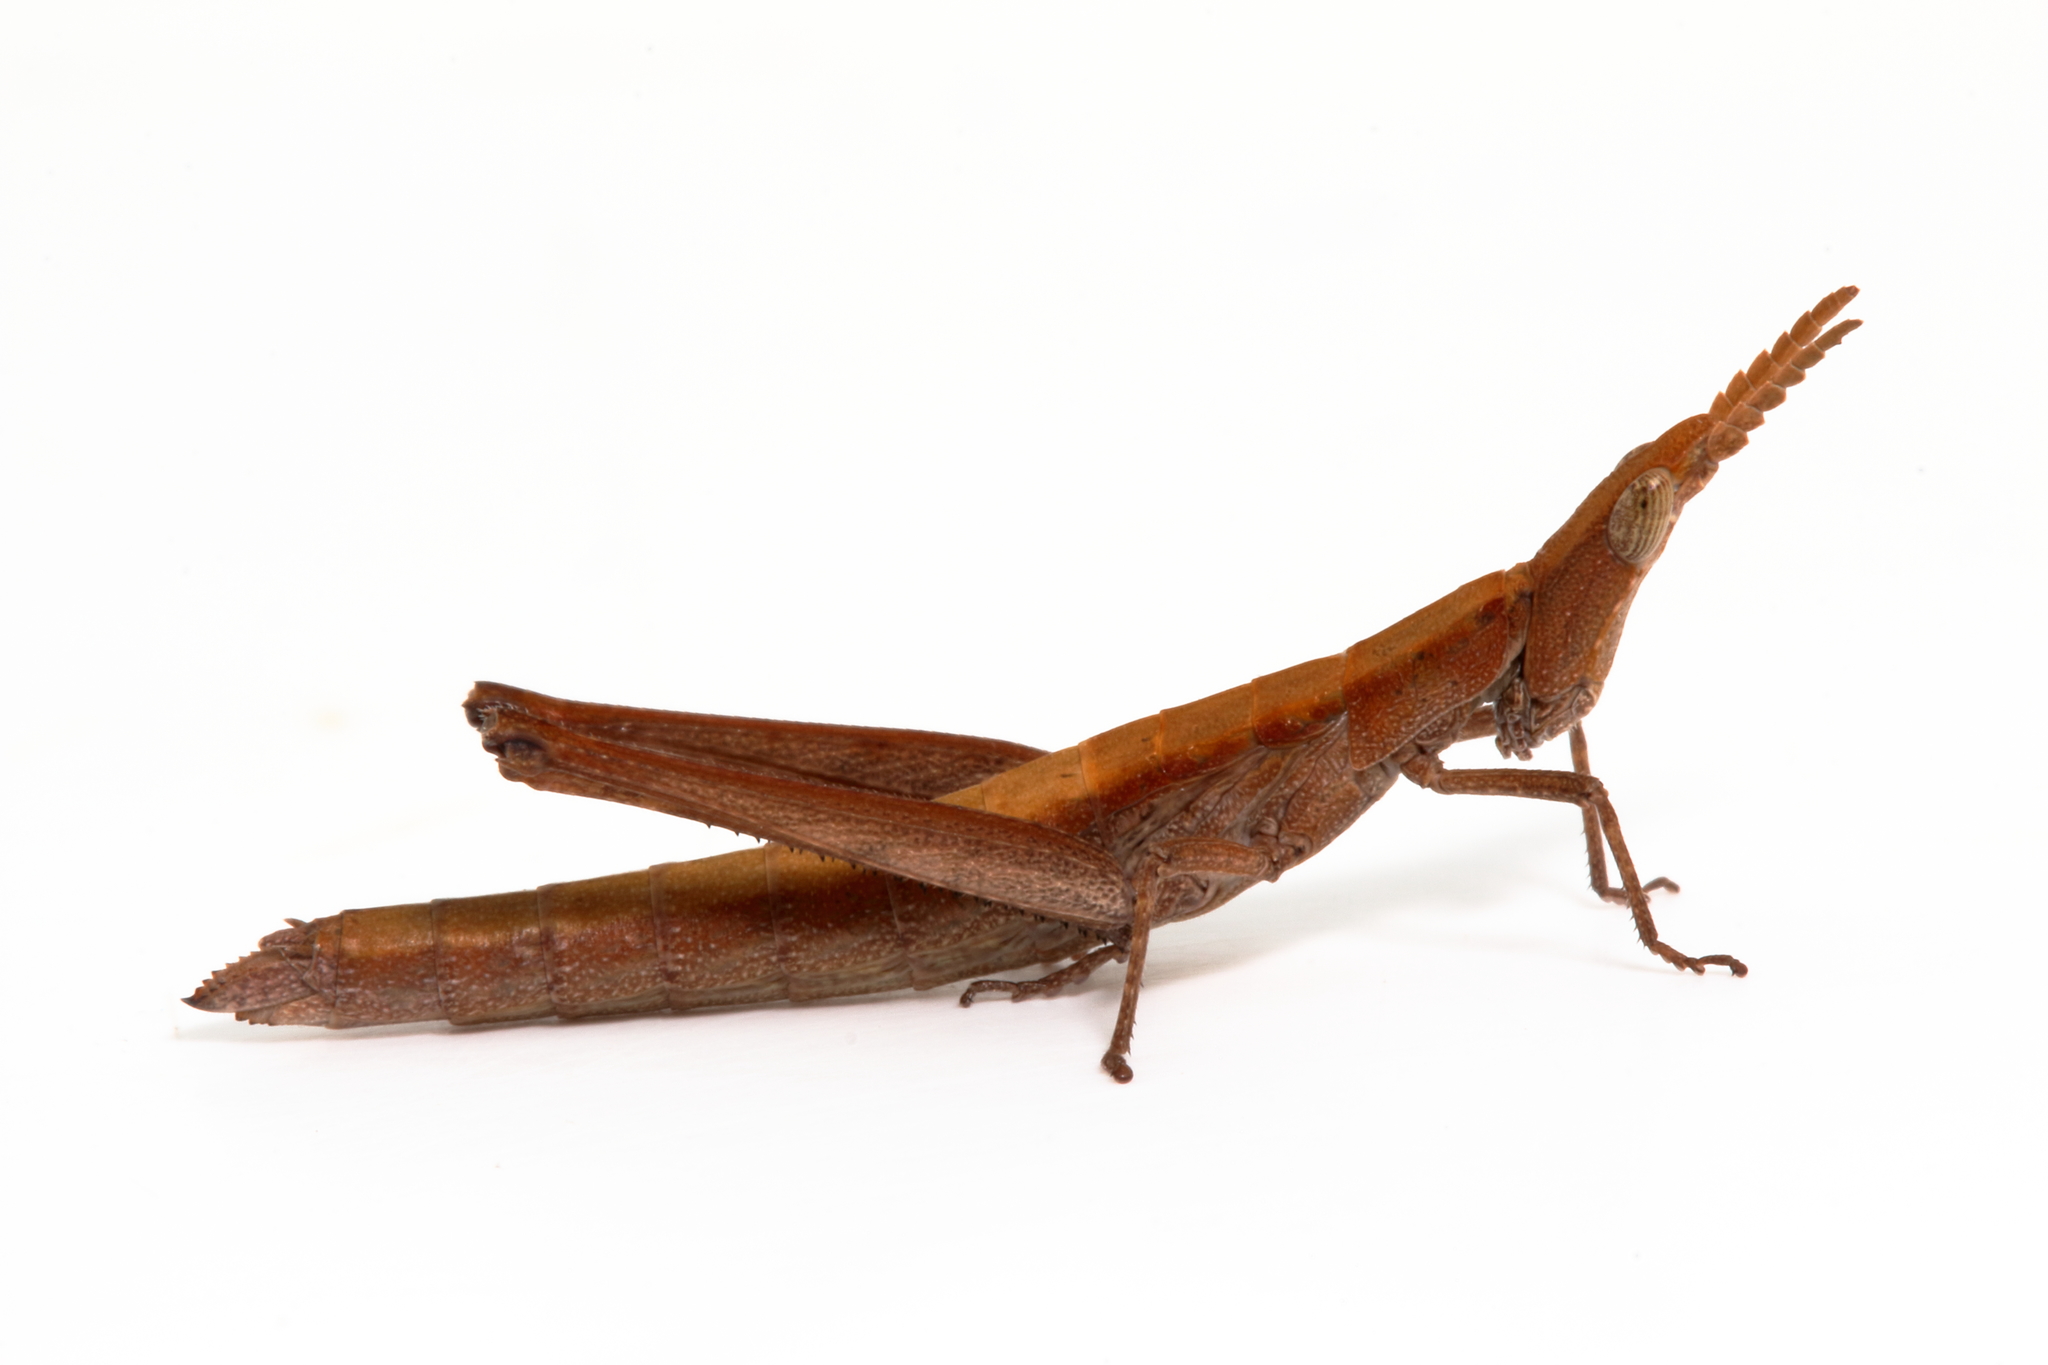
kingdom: Animalia
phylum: Arthropoda
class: Insecta
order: Orthoptera
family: Morabidae
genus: Keyacris
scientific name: Keyacris scurra
